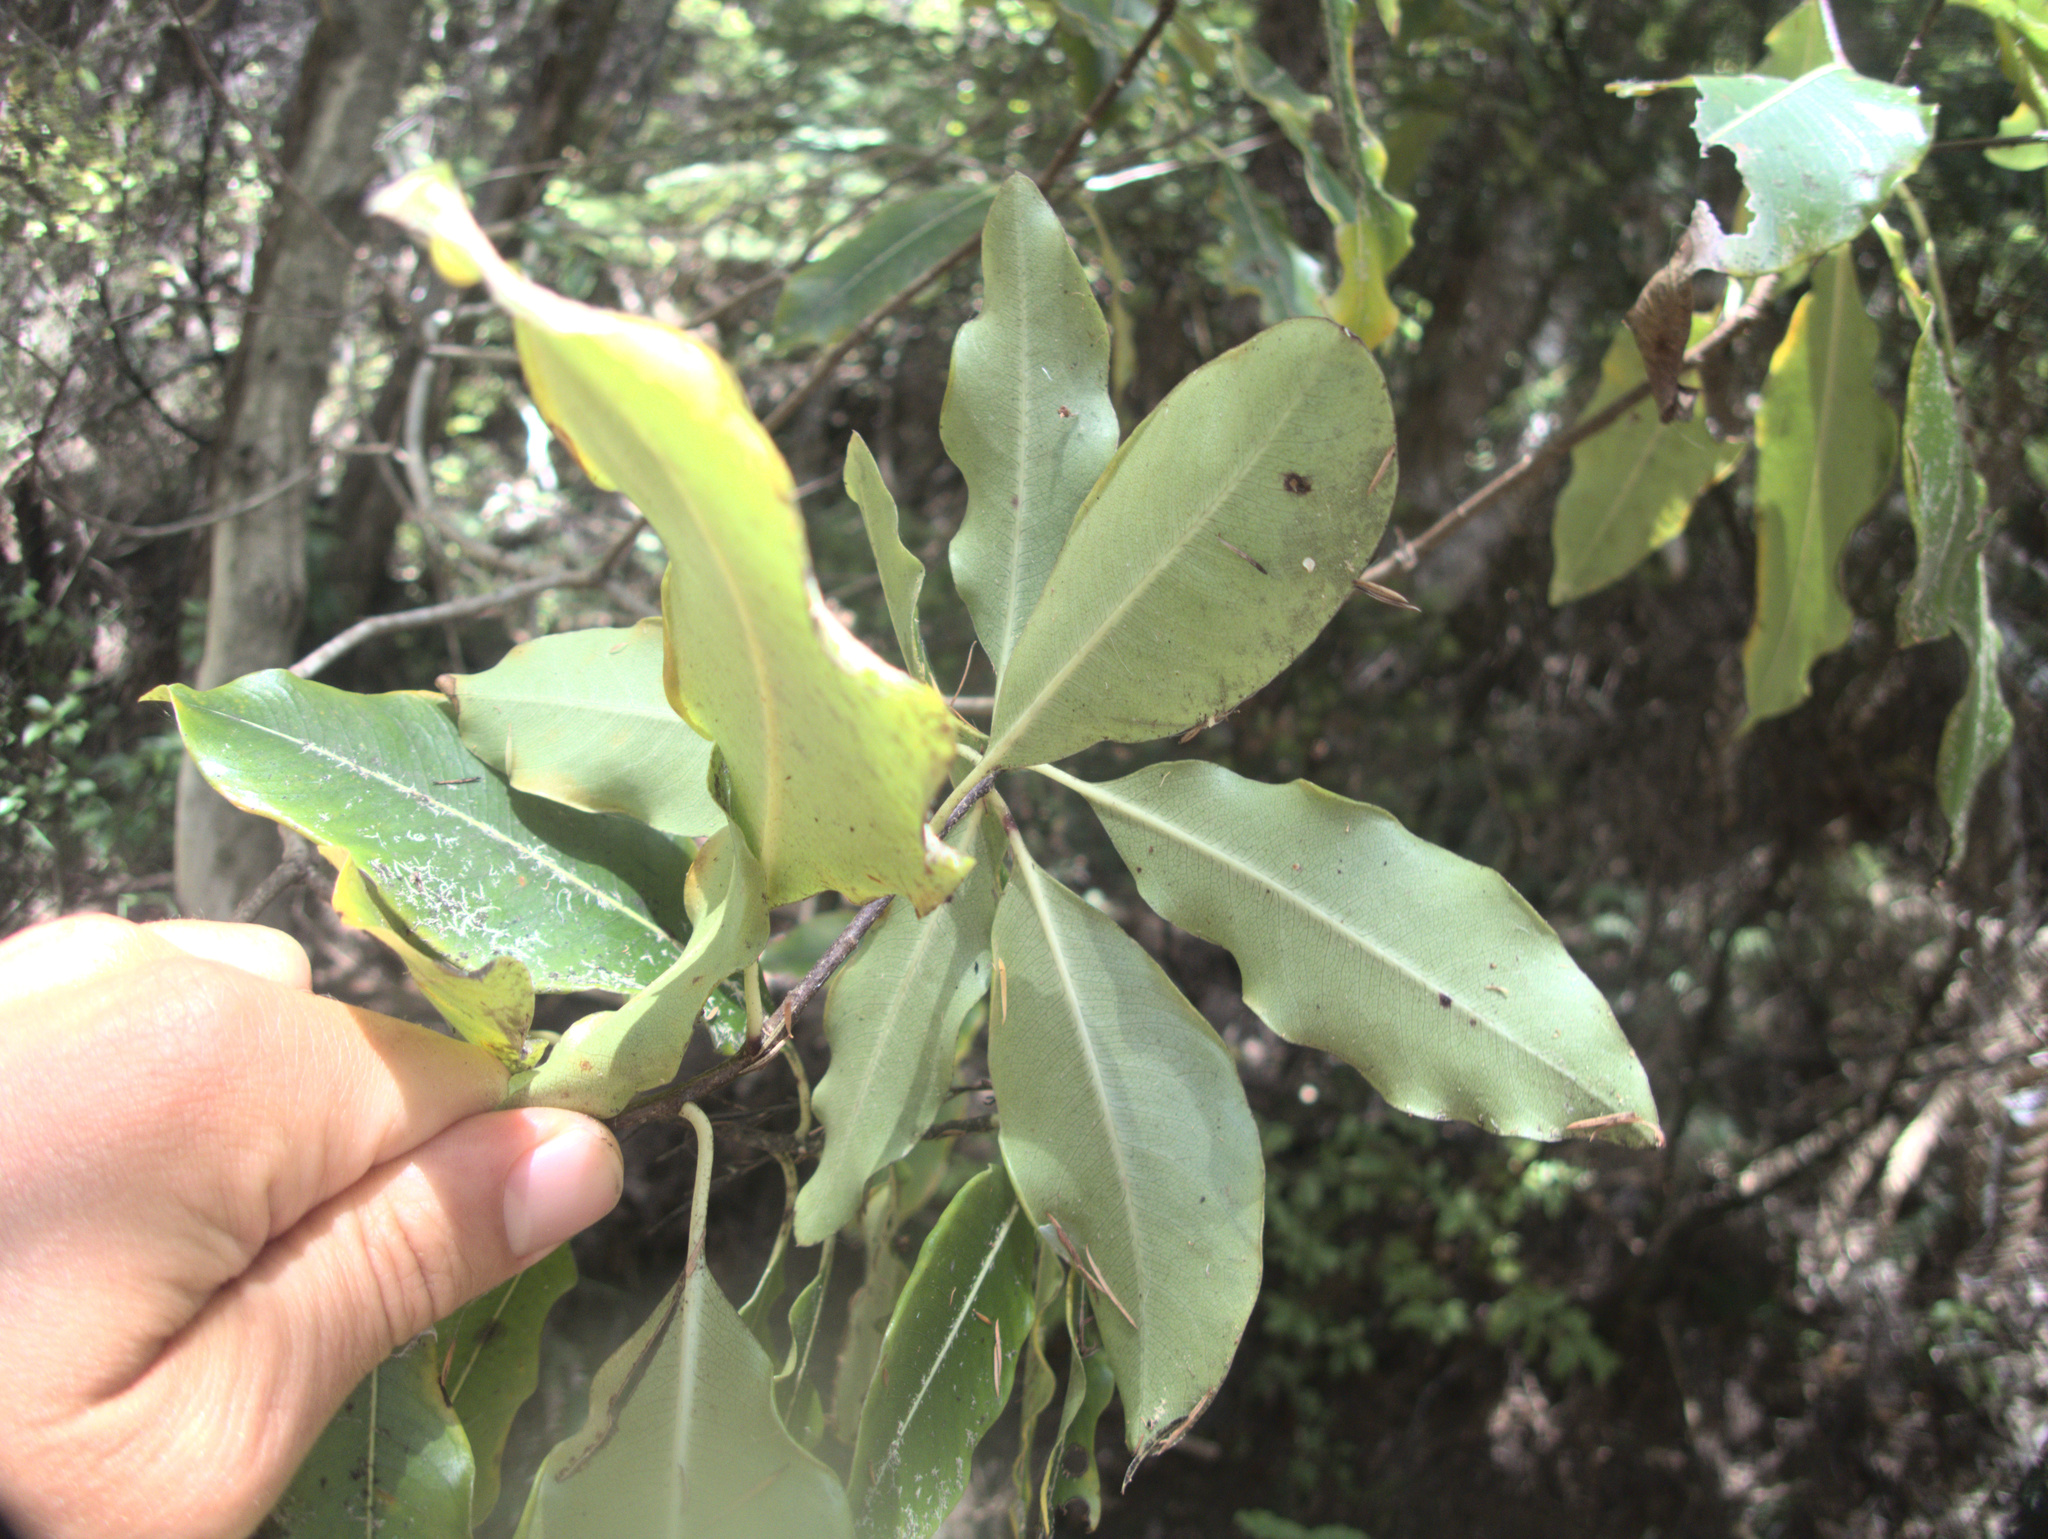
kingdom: Plantae
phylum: Tracheophyta
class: Magnoliopsida
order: Apiales
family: Pittosporaceae
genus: Pittosporum
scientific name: Pittosporum eugenioides
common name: Lemonwood
